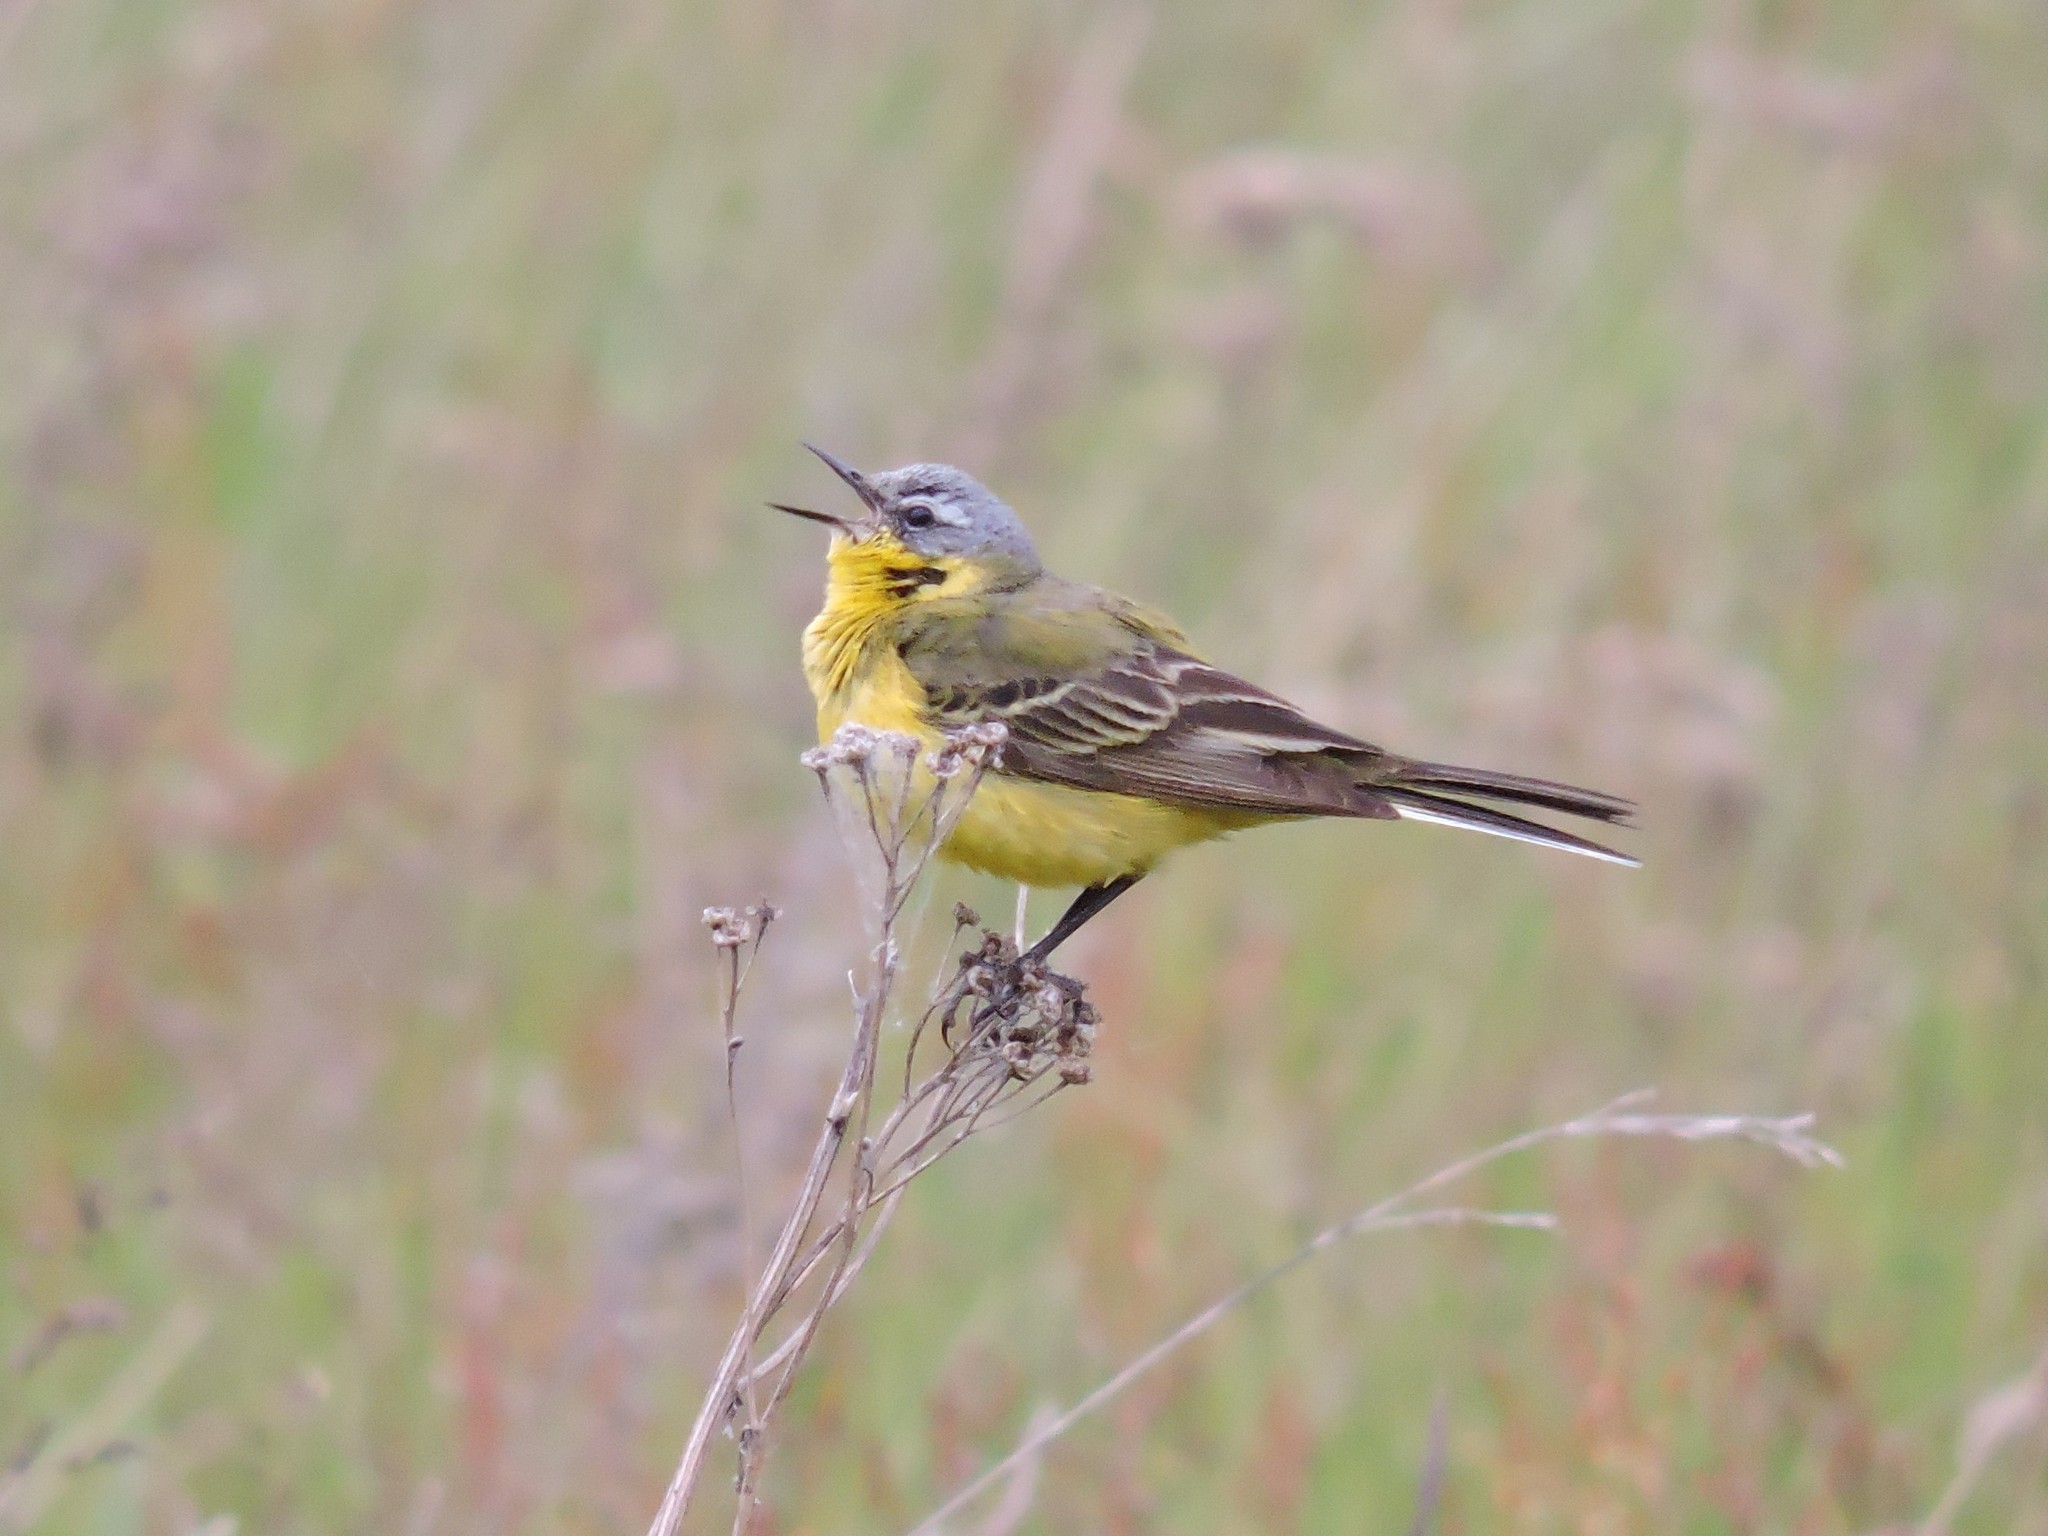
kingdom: Animalia
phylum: Chordata
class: Aves
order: Passeriformes
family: Motacillidae
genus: Motacilla
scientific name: Motacilla flava
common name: Western yellow wagtail
